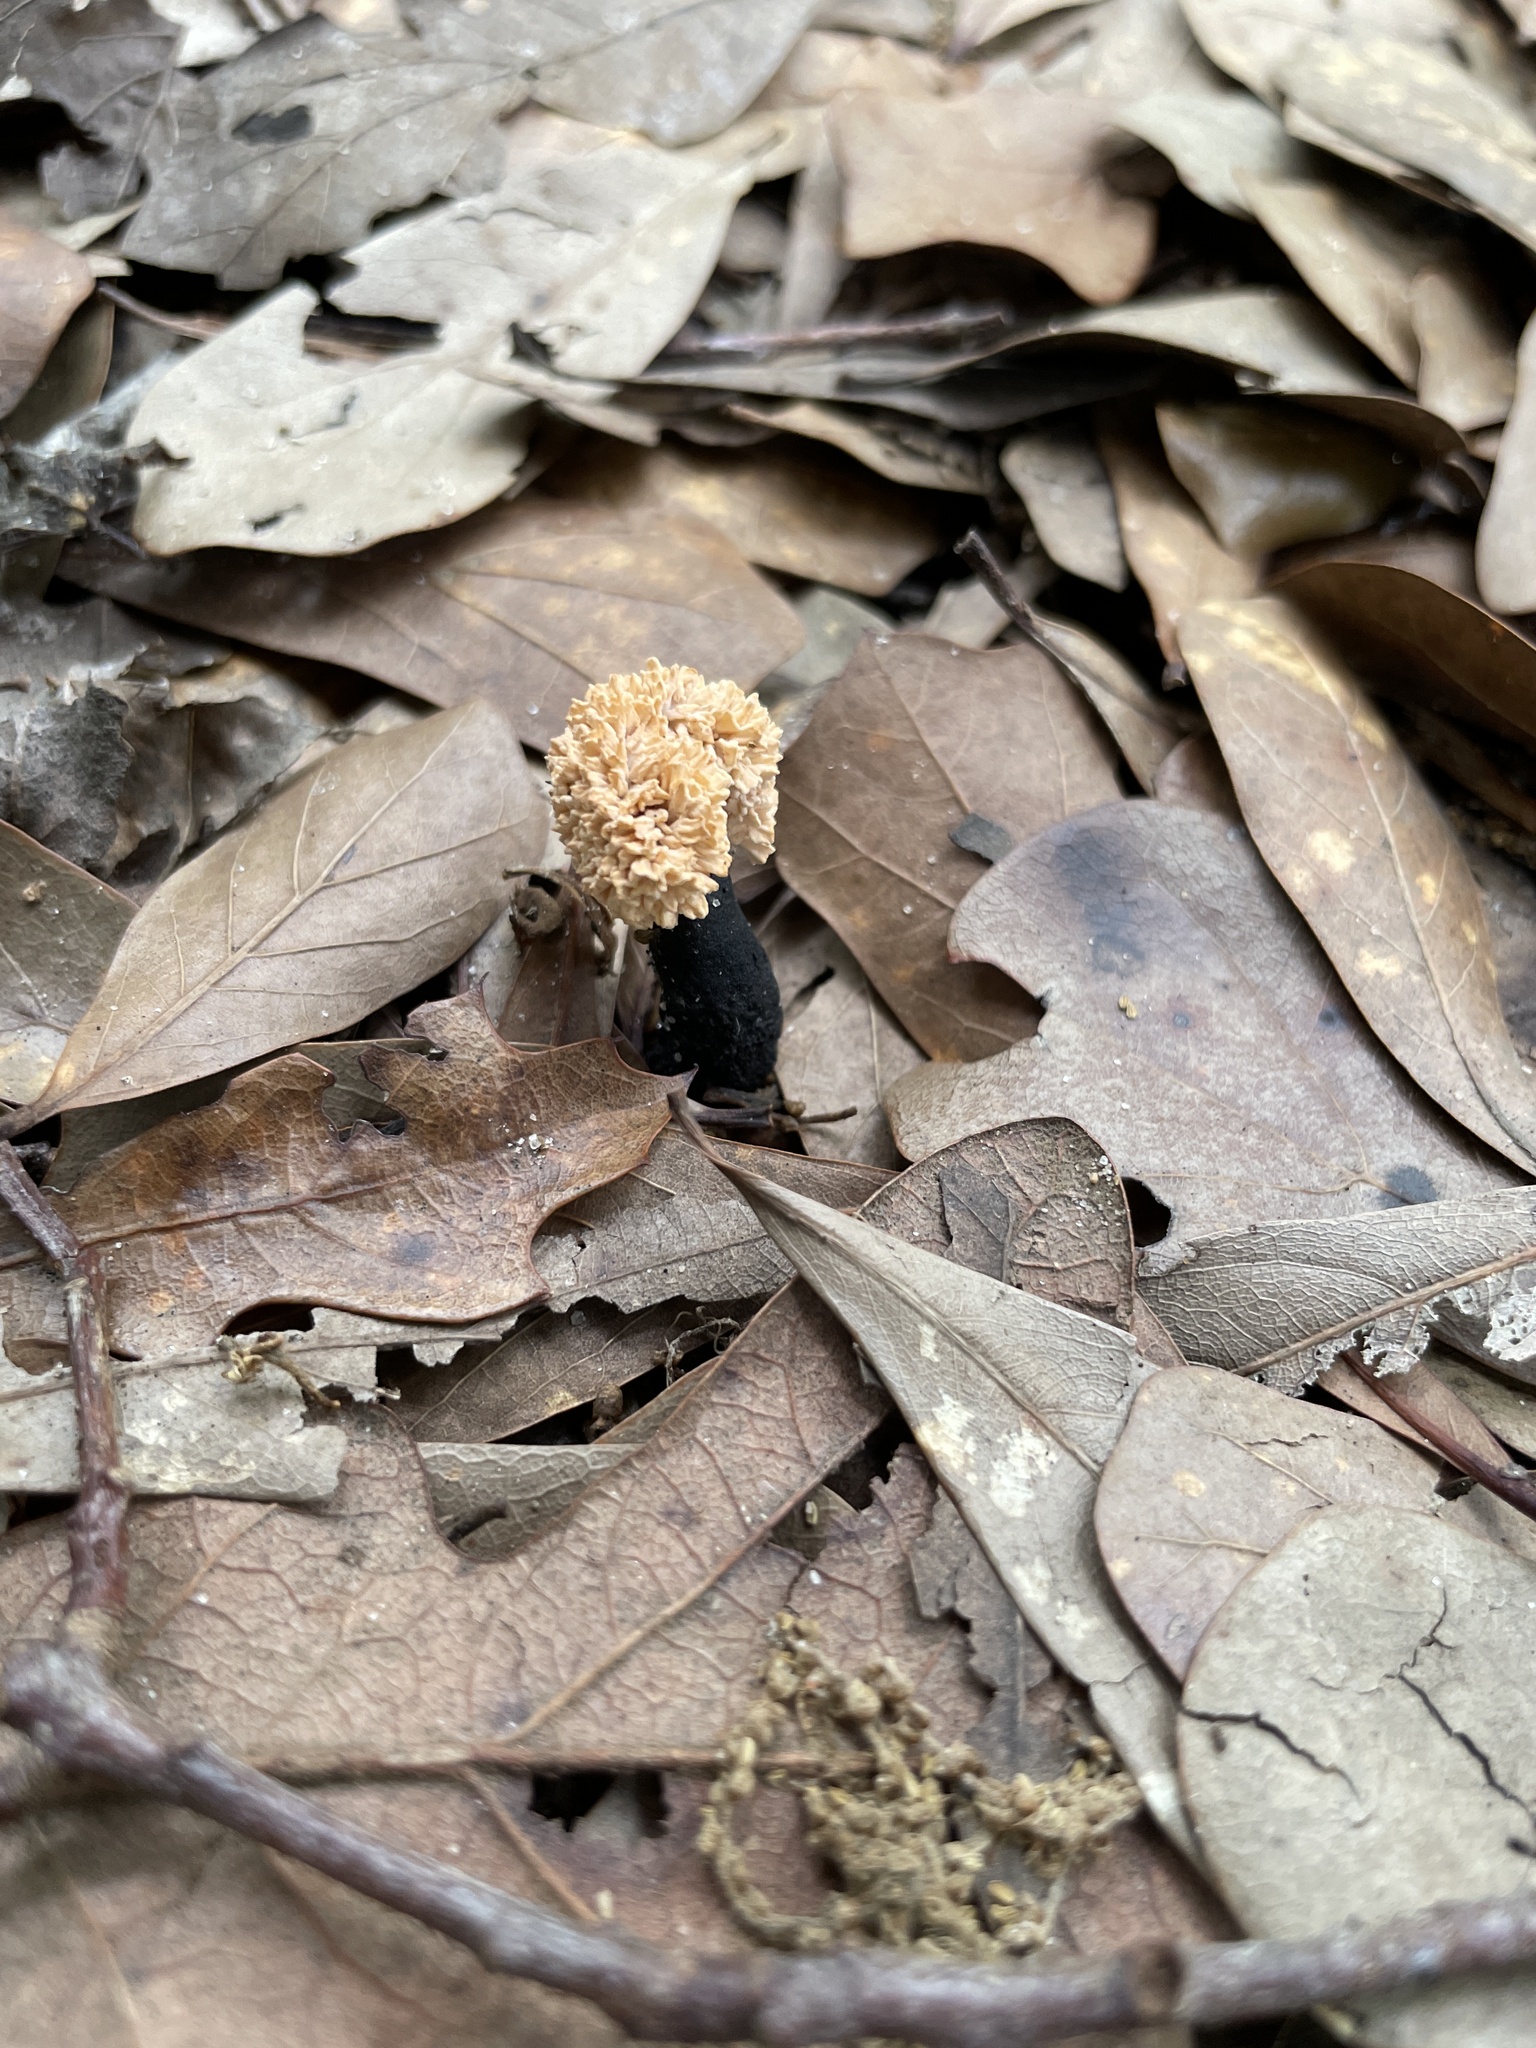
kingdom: Fungi
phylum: Ascomycota
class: Sordariomycetes
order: Xylariales
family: Xylariaceae
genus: Xylaria
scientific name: Xylaria cubensis
